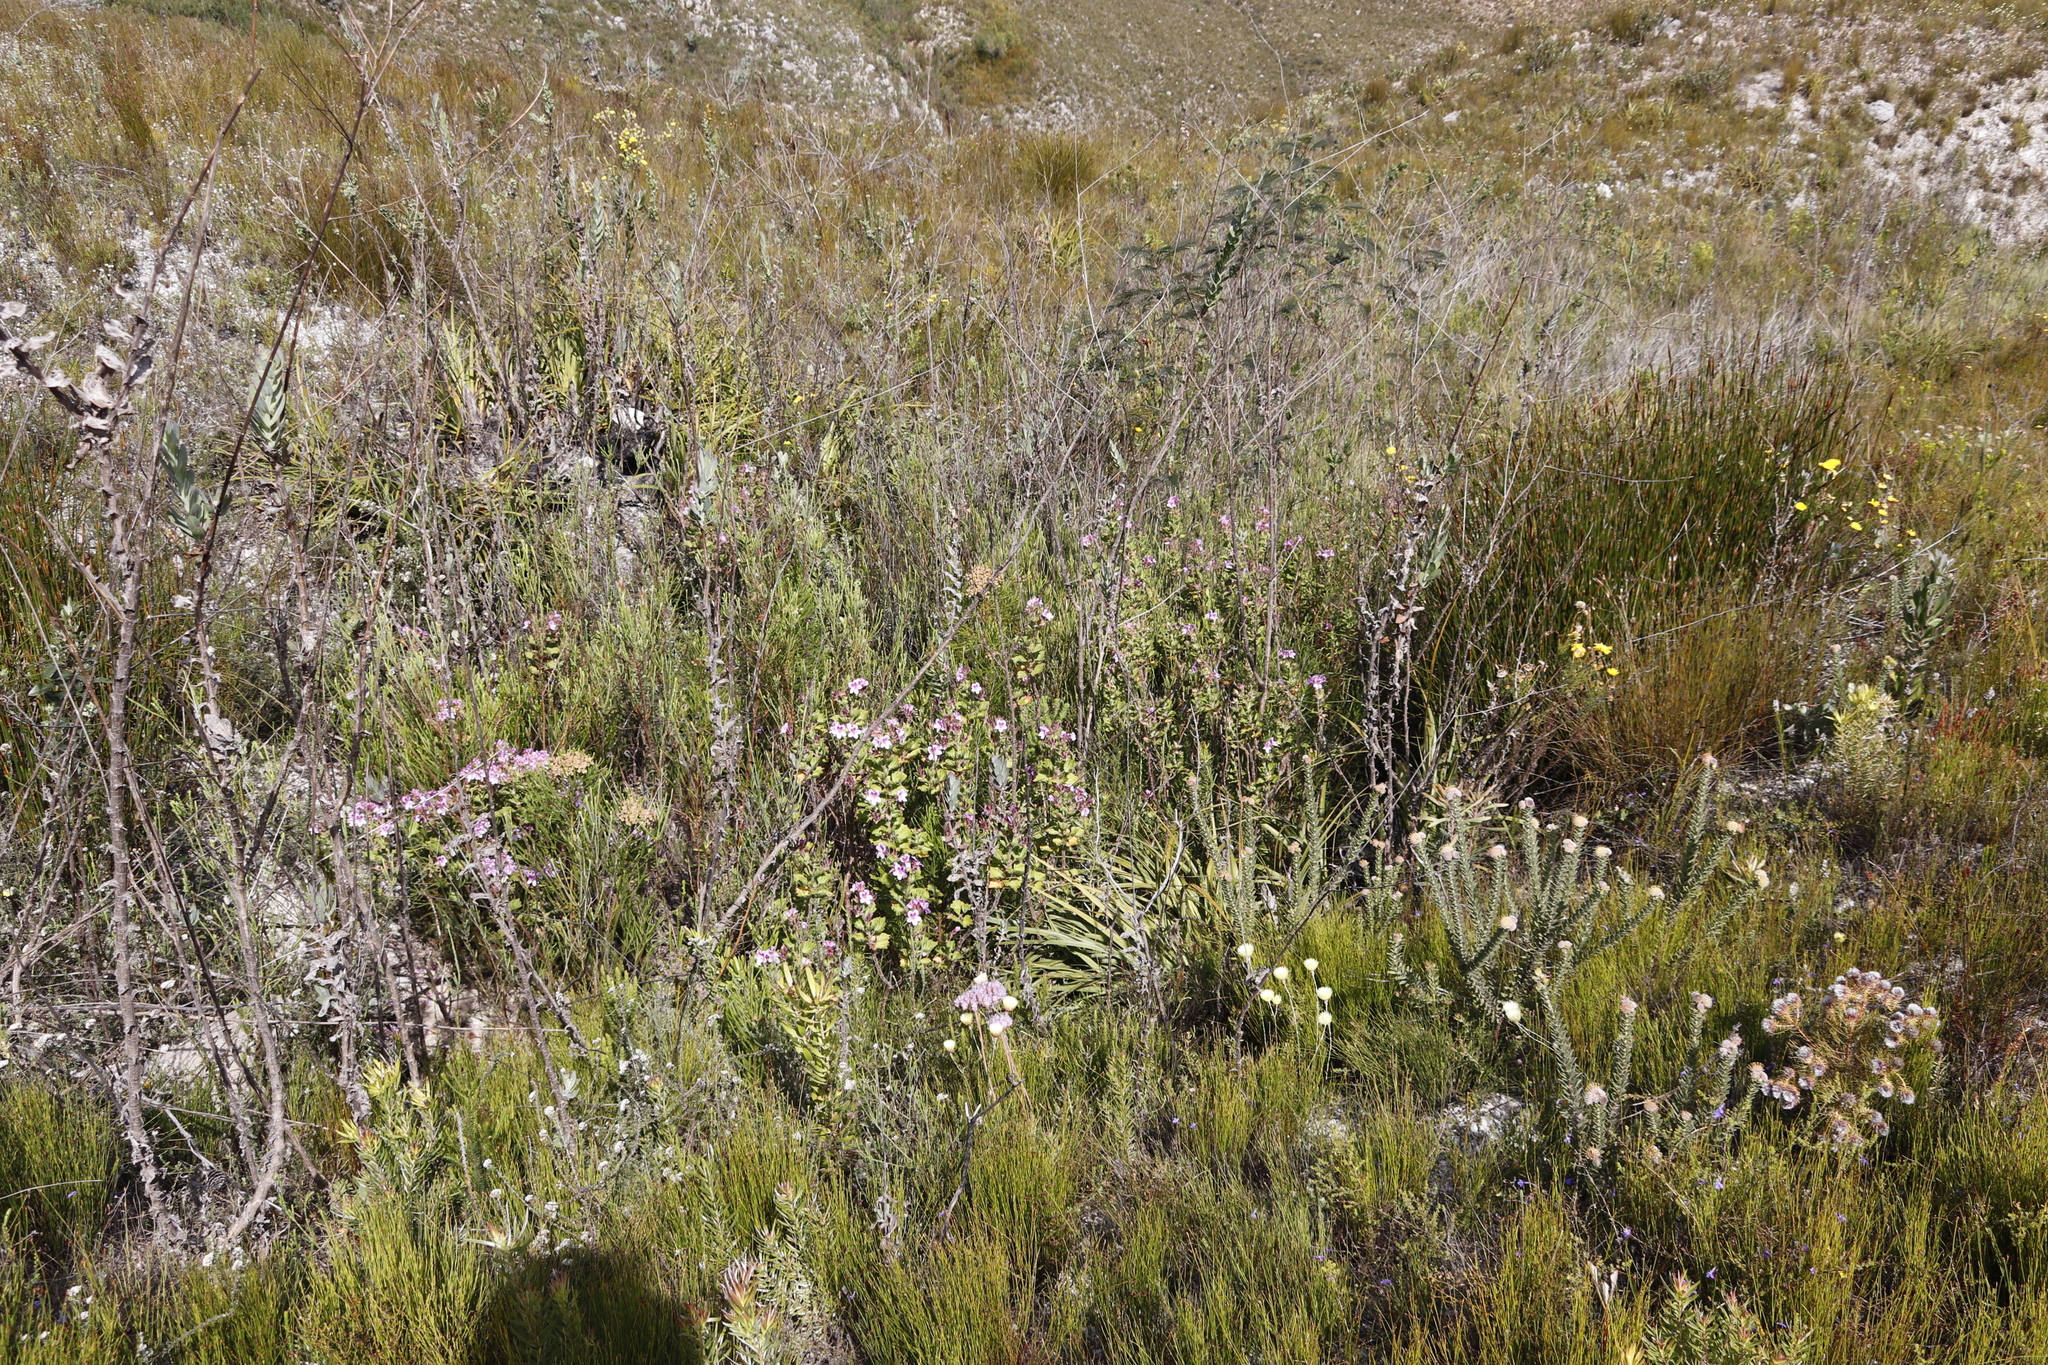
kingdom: Plantae
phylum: Tracheophyta
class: Magnoliopsida
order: Geraniales
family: Geraniaceae
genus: Pelargonium
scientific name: Pelargonium cucullatum
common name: Tree pelargonium
